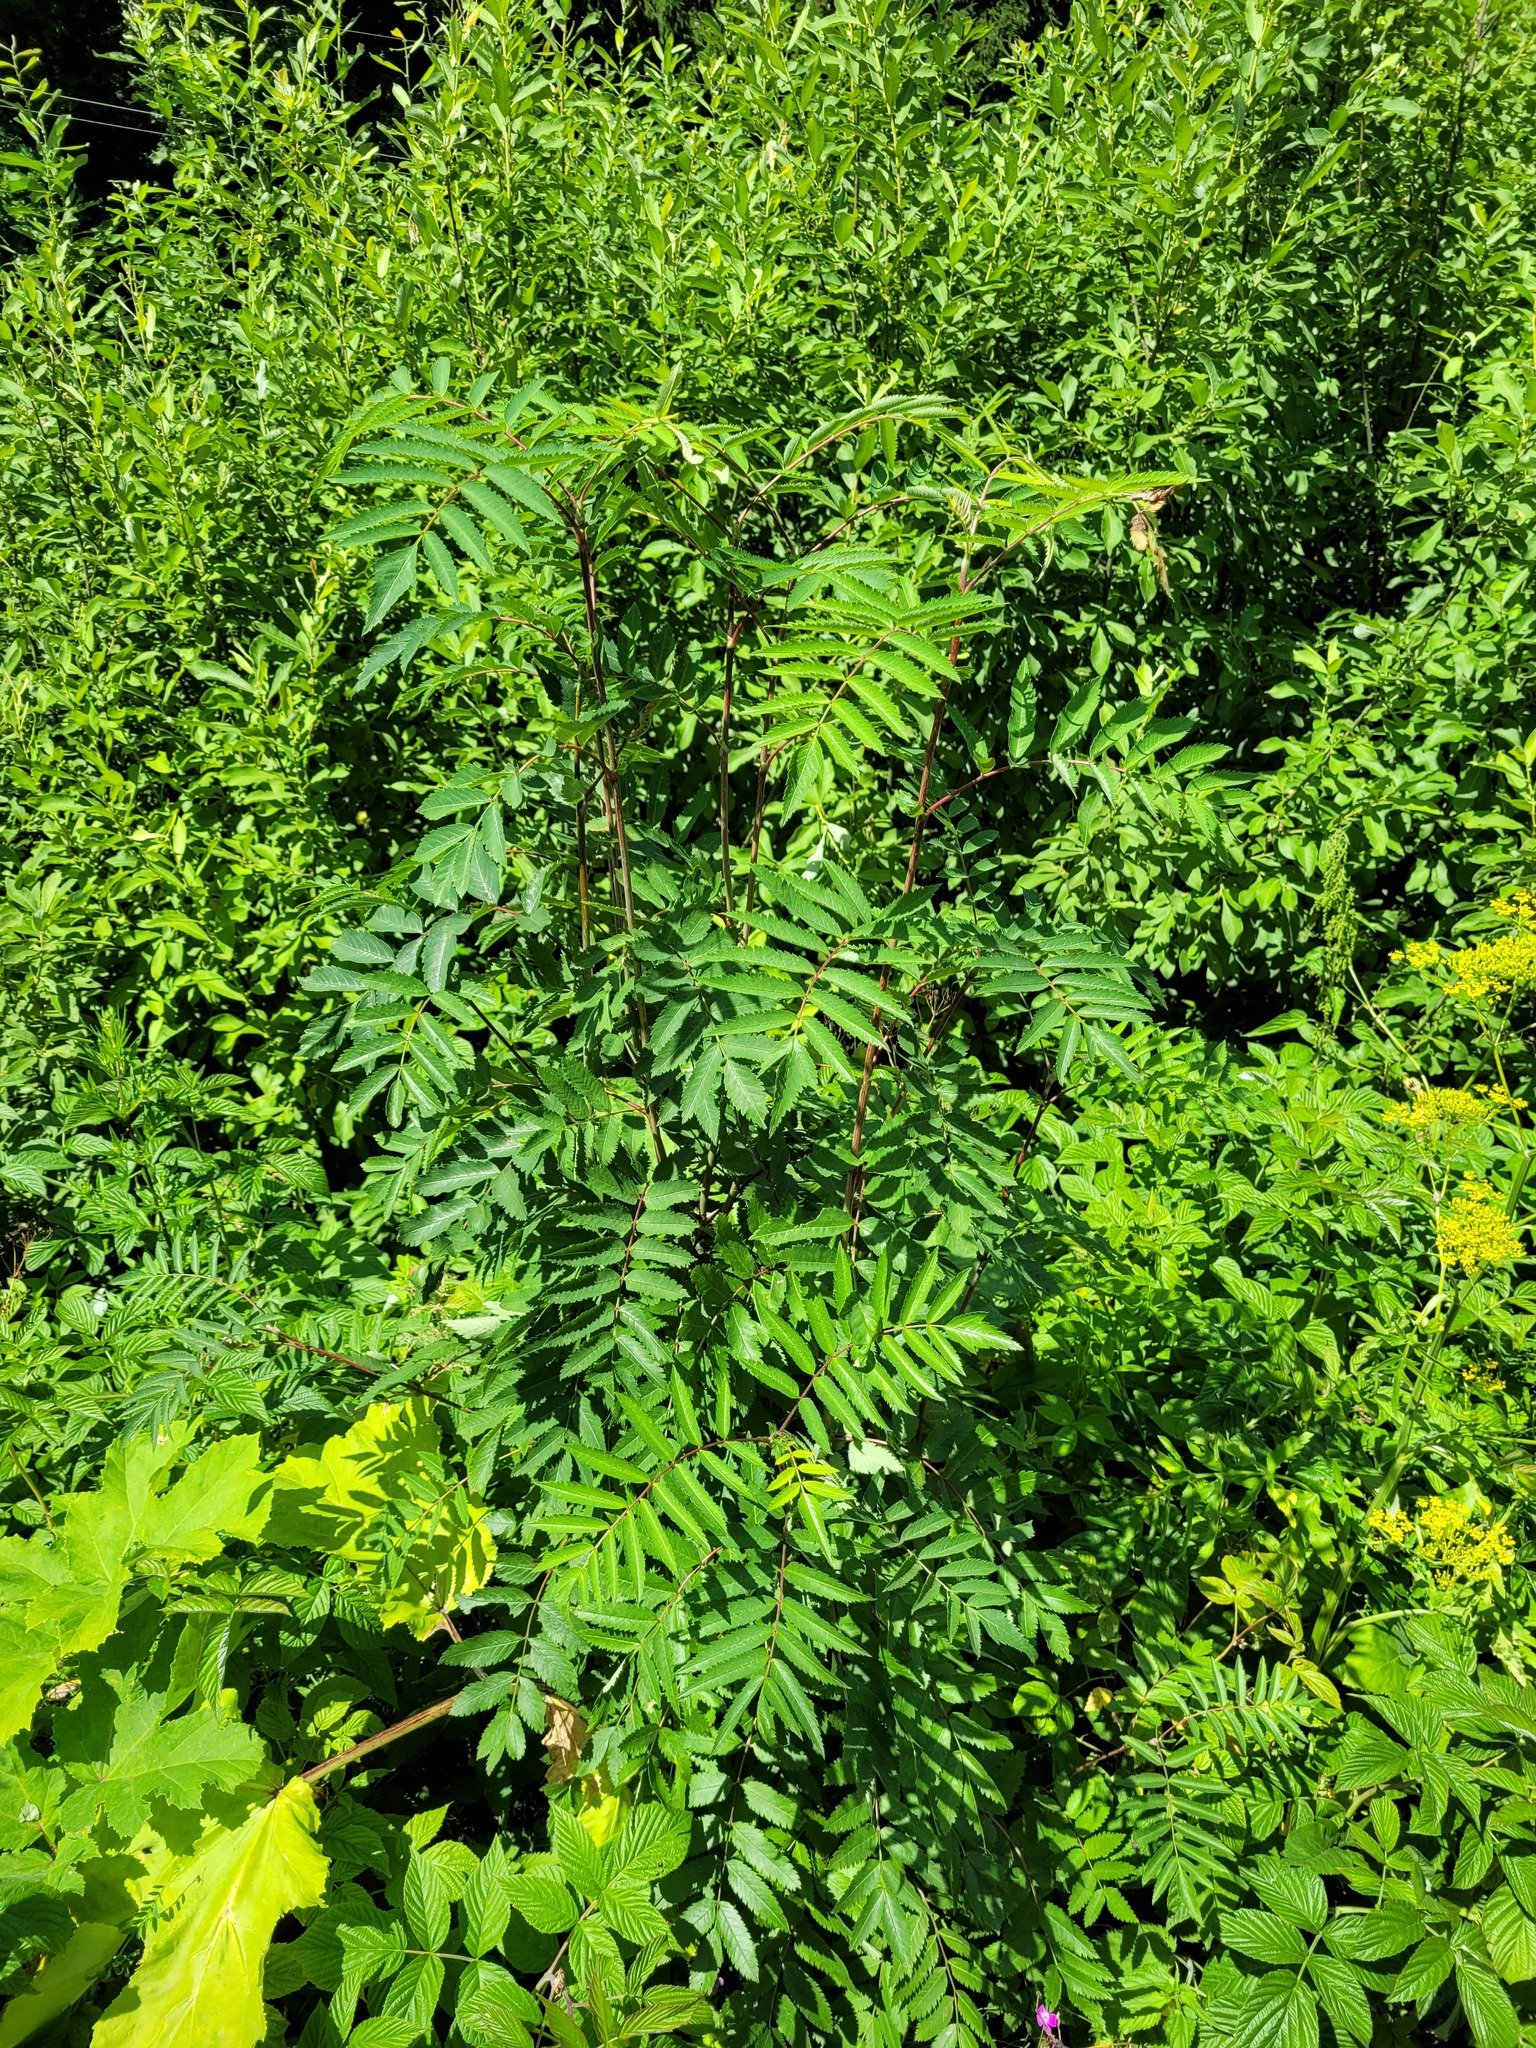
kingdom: Plantae
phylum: Tracheophyta
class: Magnoliopsida
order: Rosales
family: Rosaceae
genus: Sorbus
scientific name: Sorbus aucuparia
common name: Rowan
